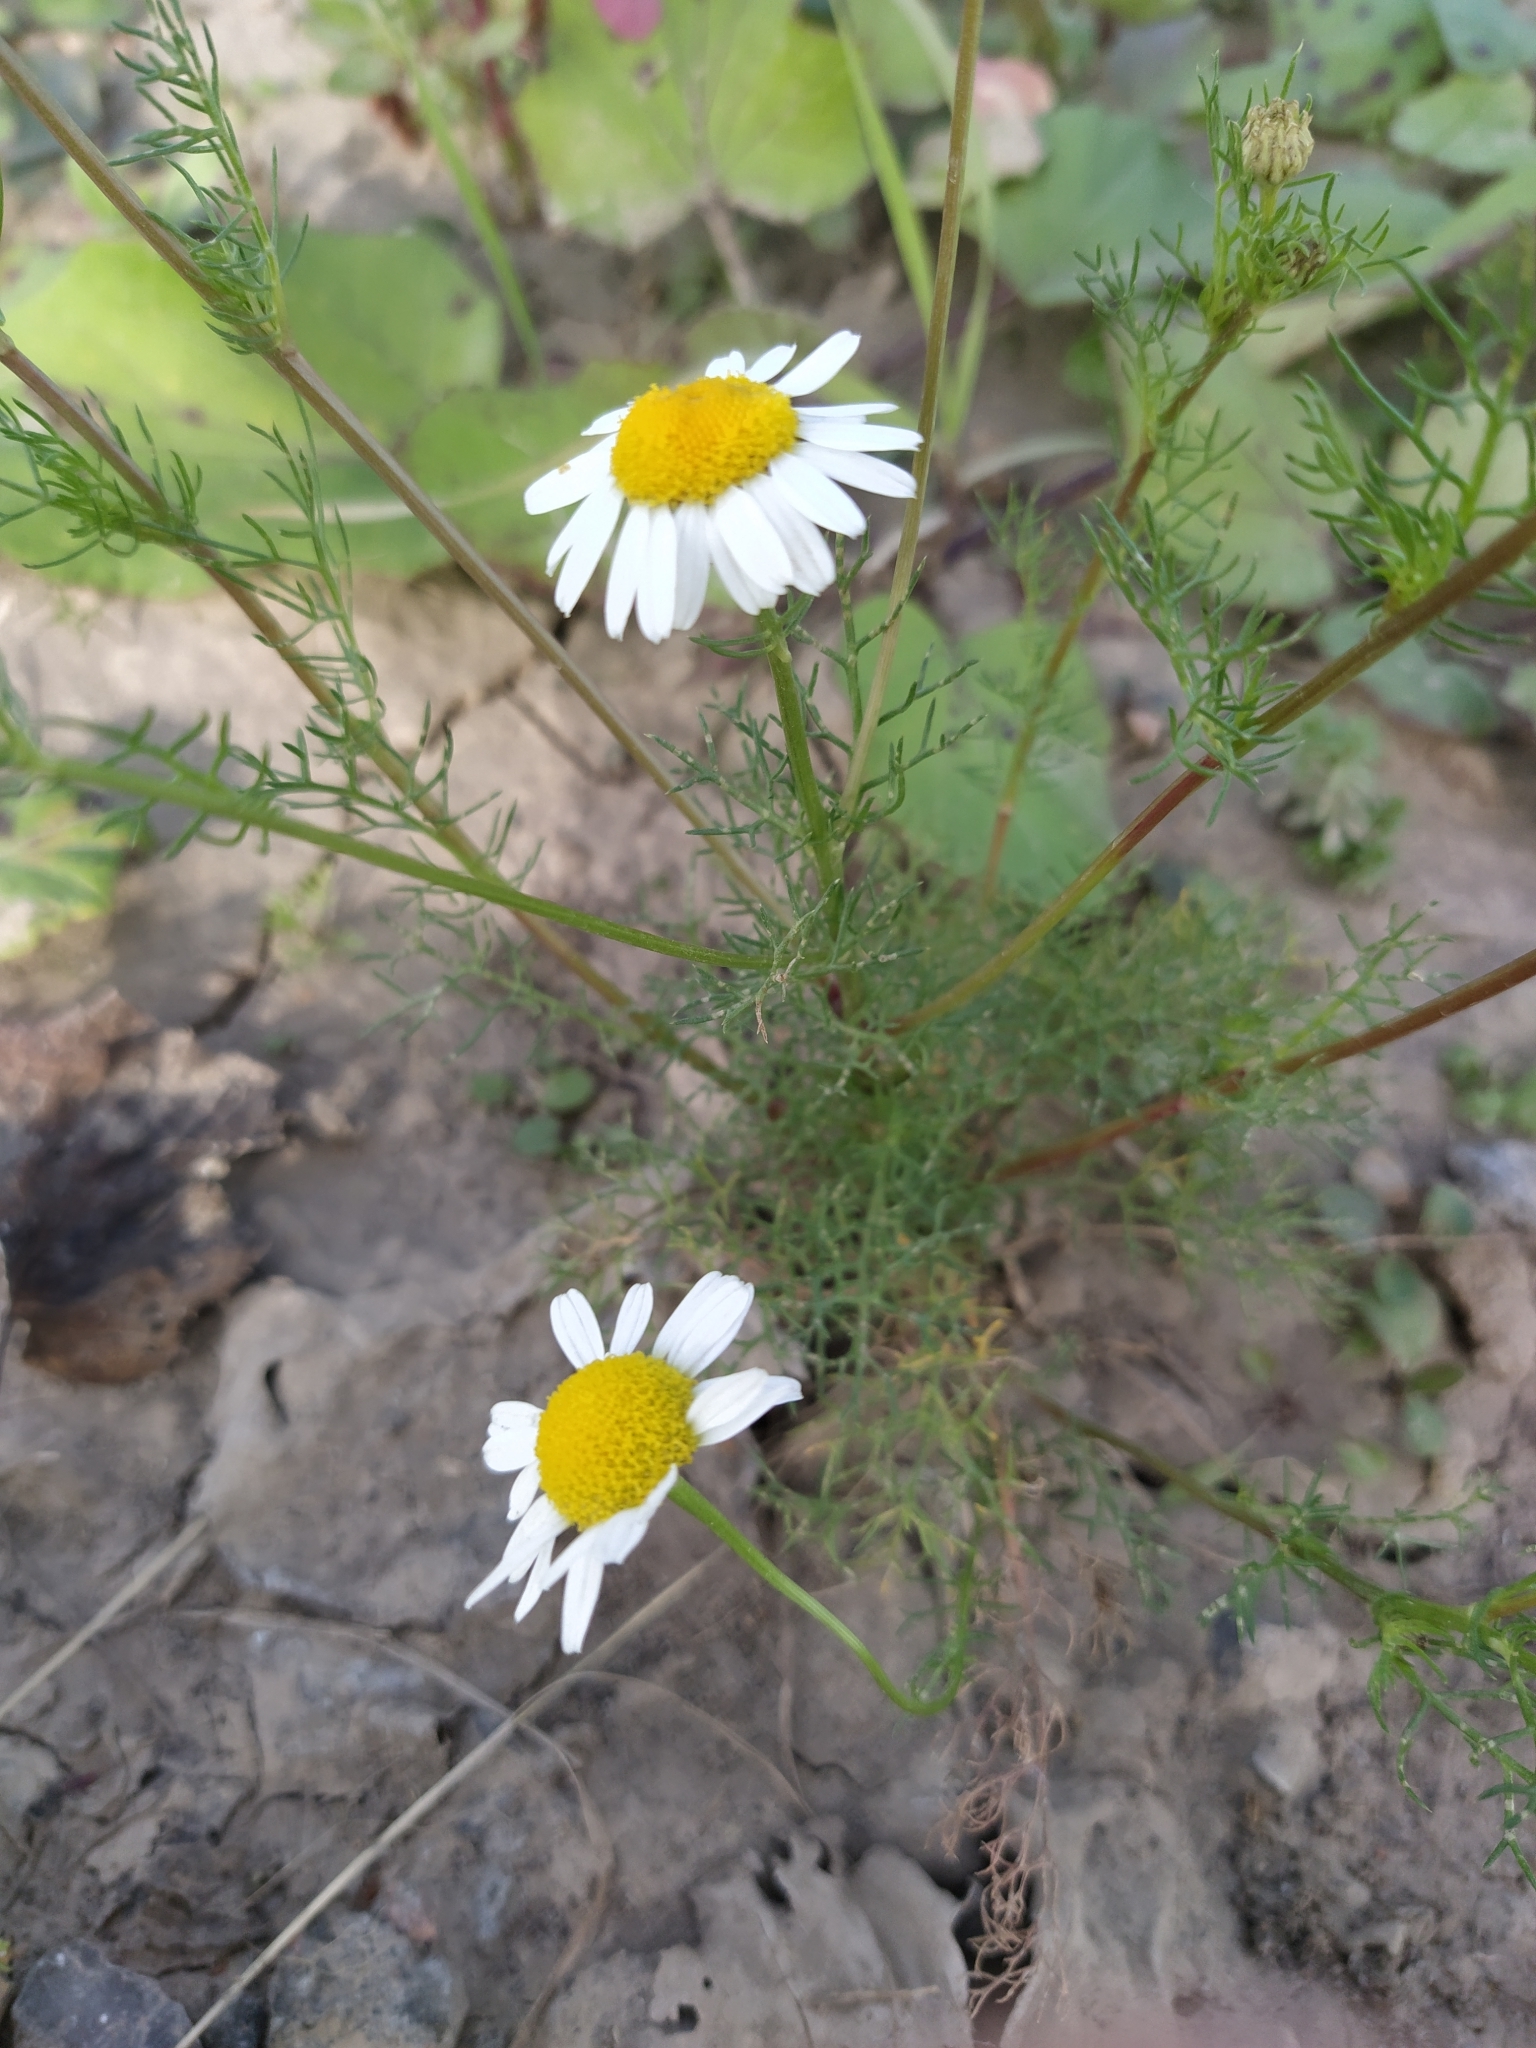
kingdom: Plantae
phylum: Tracheophyta
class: Magnoliopsida
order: Asterales
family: Asteraceae
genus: Tripleurospermum
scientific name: Tripleurospermum inodorum
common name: Scentless mayweed
